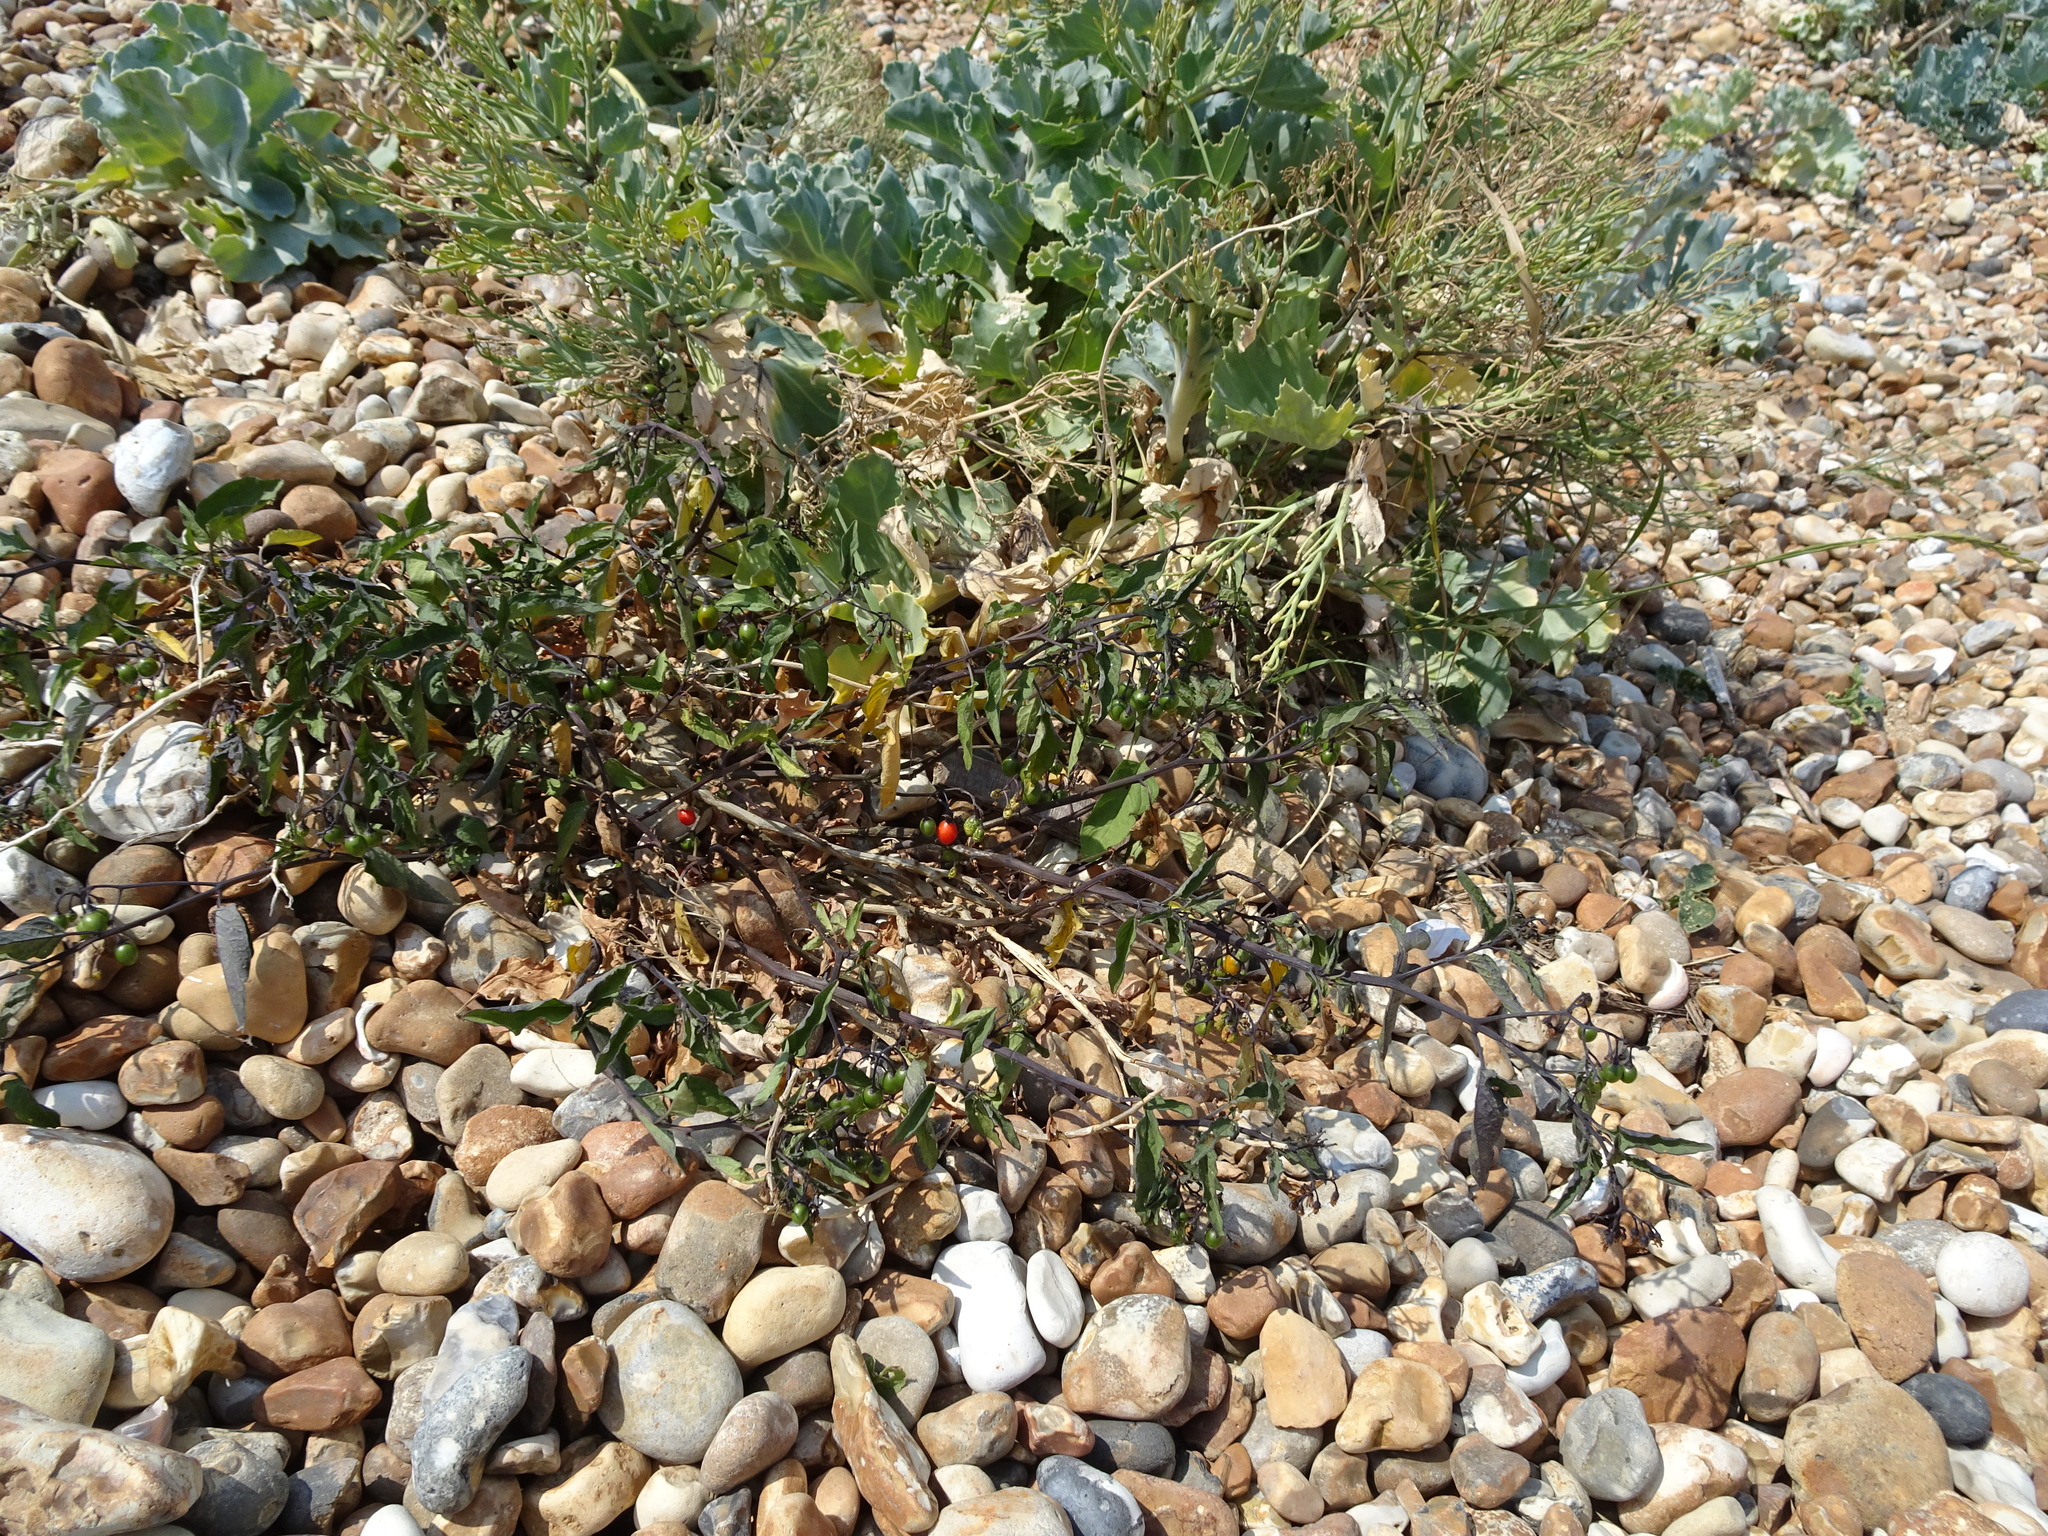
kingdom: Plantae
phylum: Tracheophyta
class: Magnoliopsida
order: Solanales
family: Solanaceae
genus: Solanum
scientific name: Solanum dulcamara
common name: Climbing nightshade
